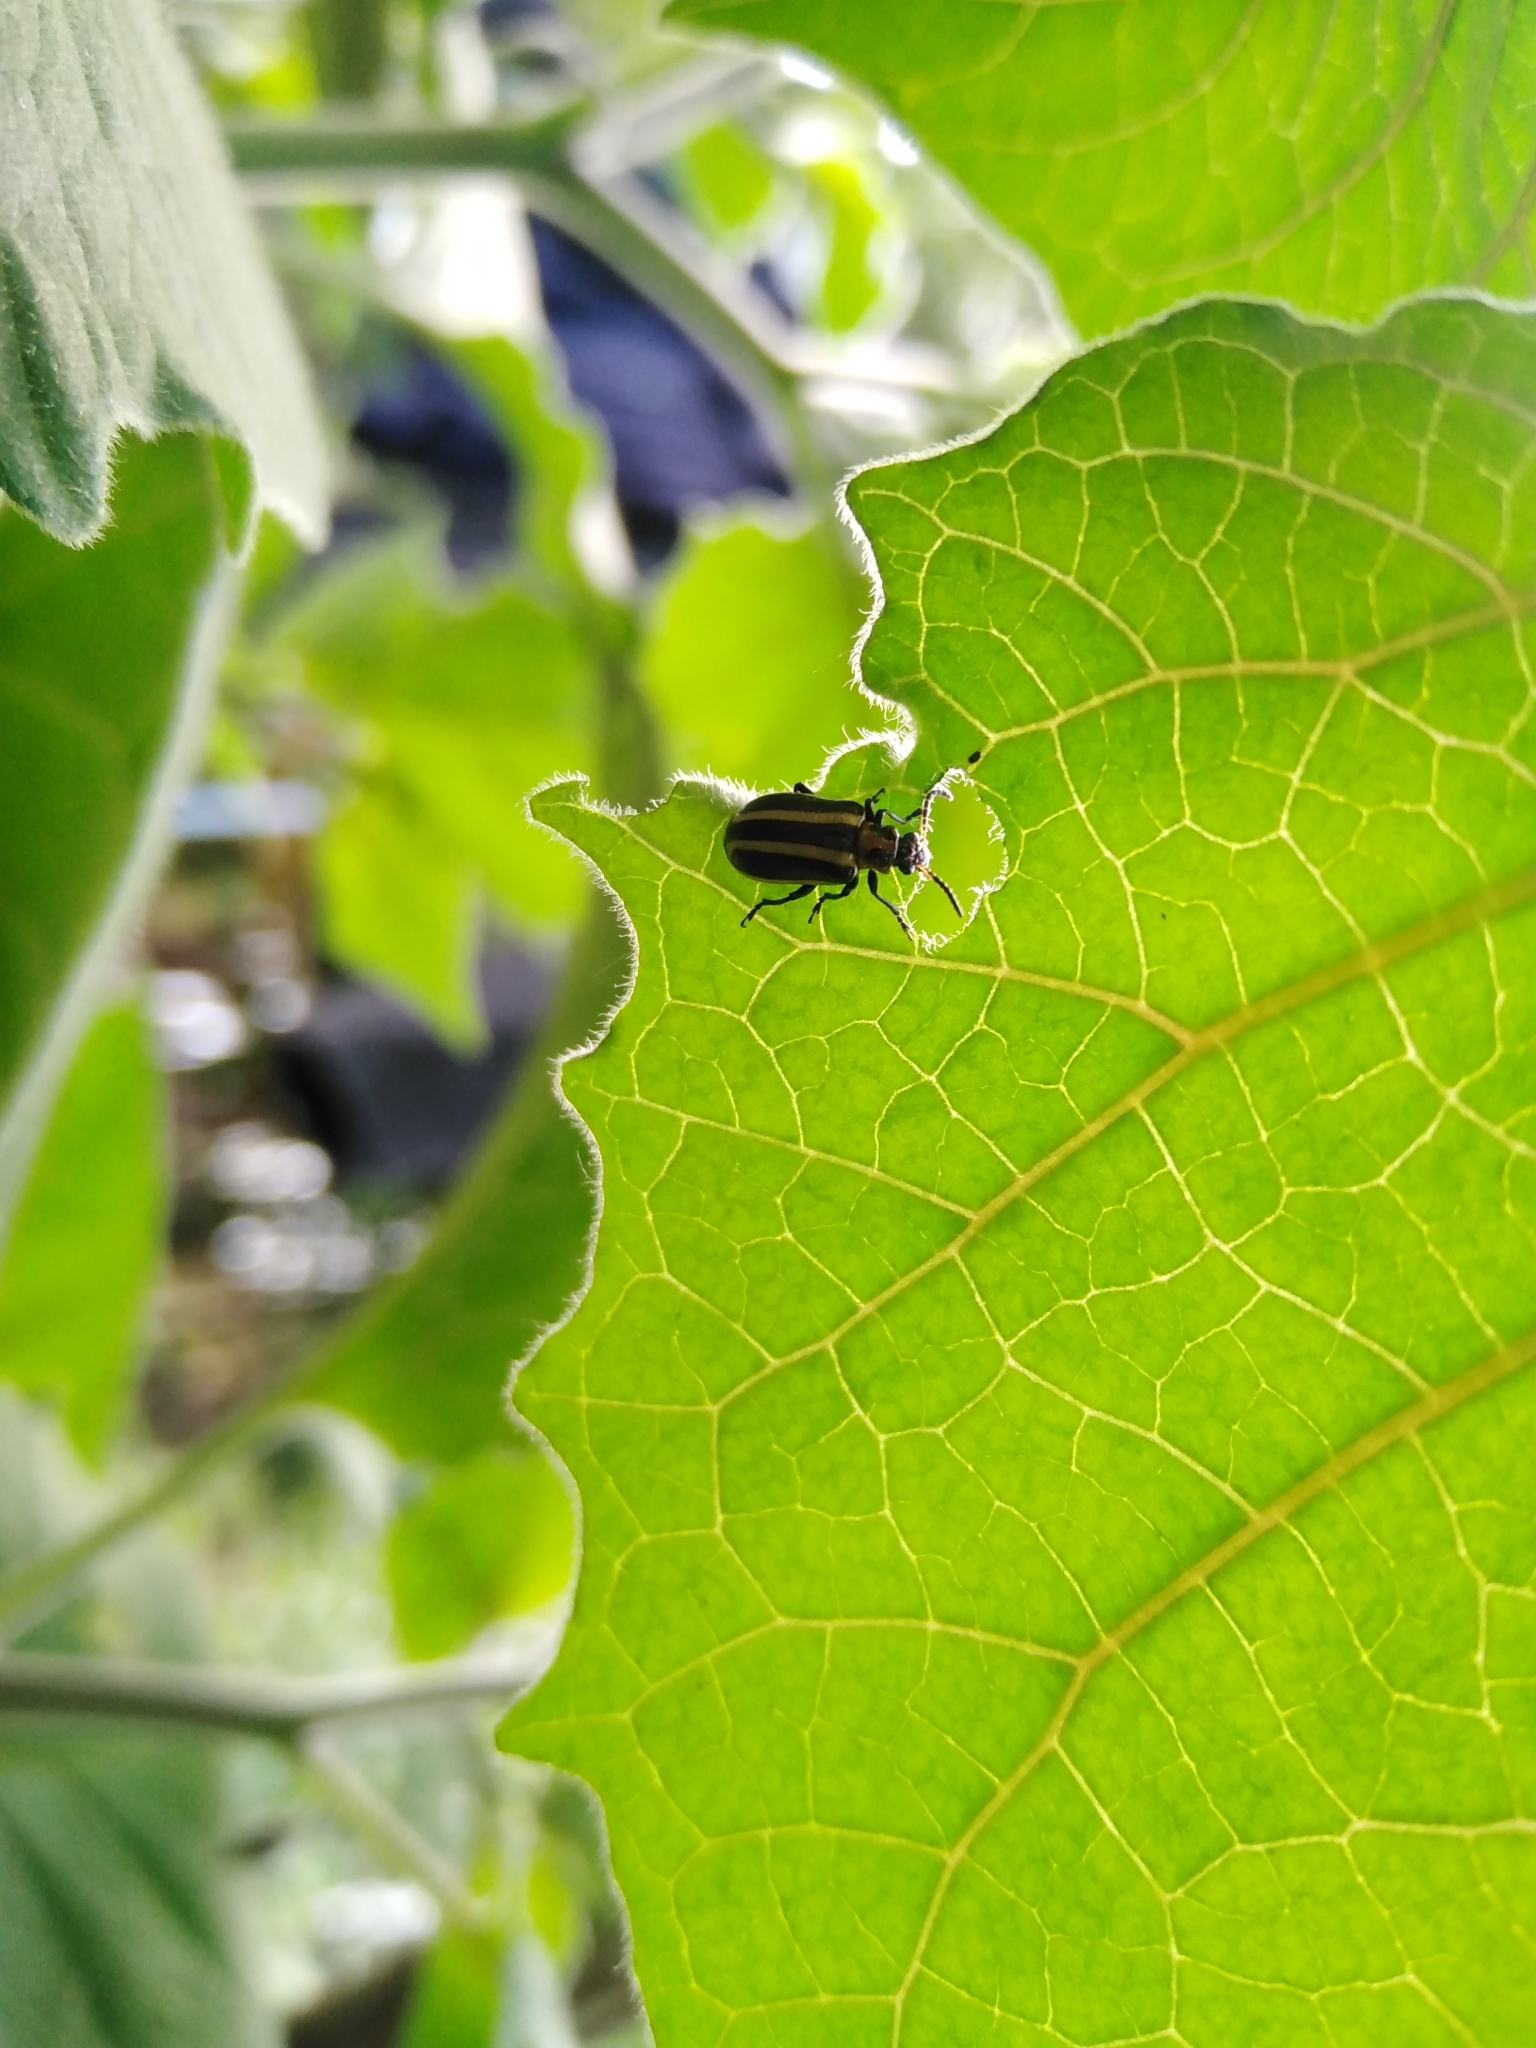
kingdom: Animalia
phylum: Arthropoda
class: Insecta
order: Coleoptera
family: Chrysomelidae
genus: Lema
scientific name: Lema bilineata
